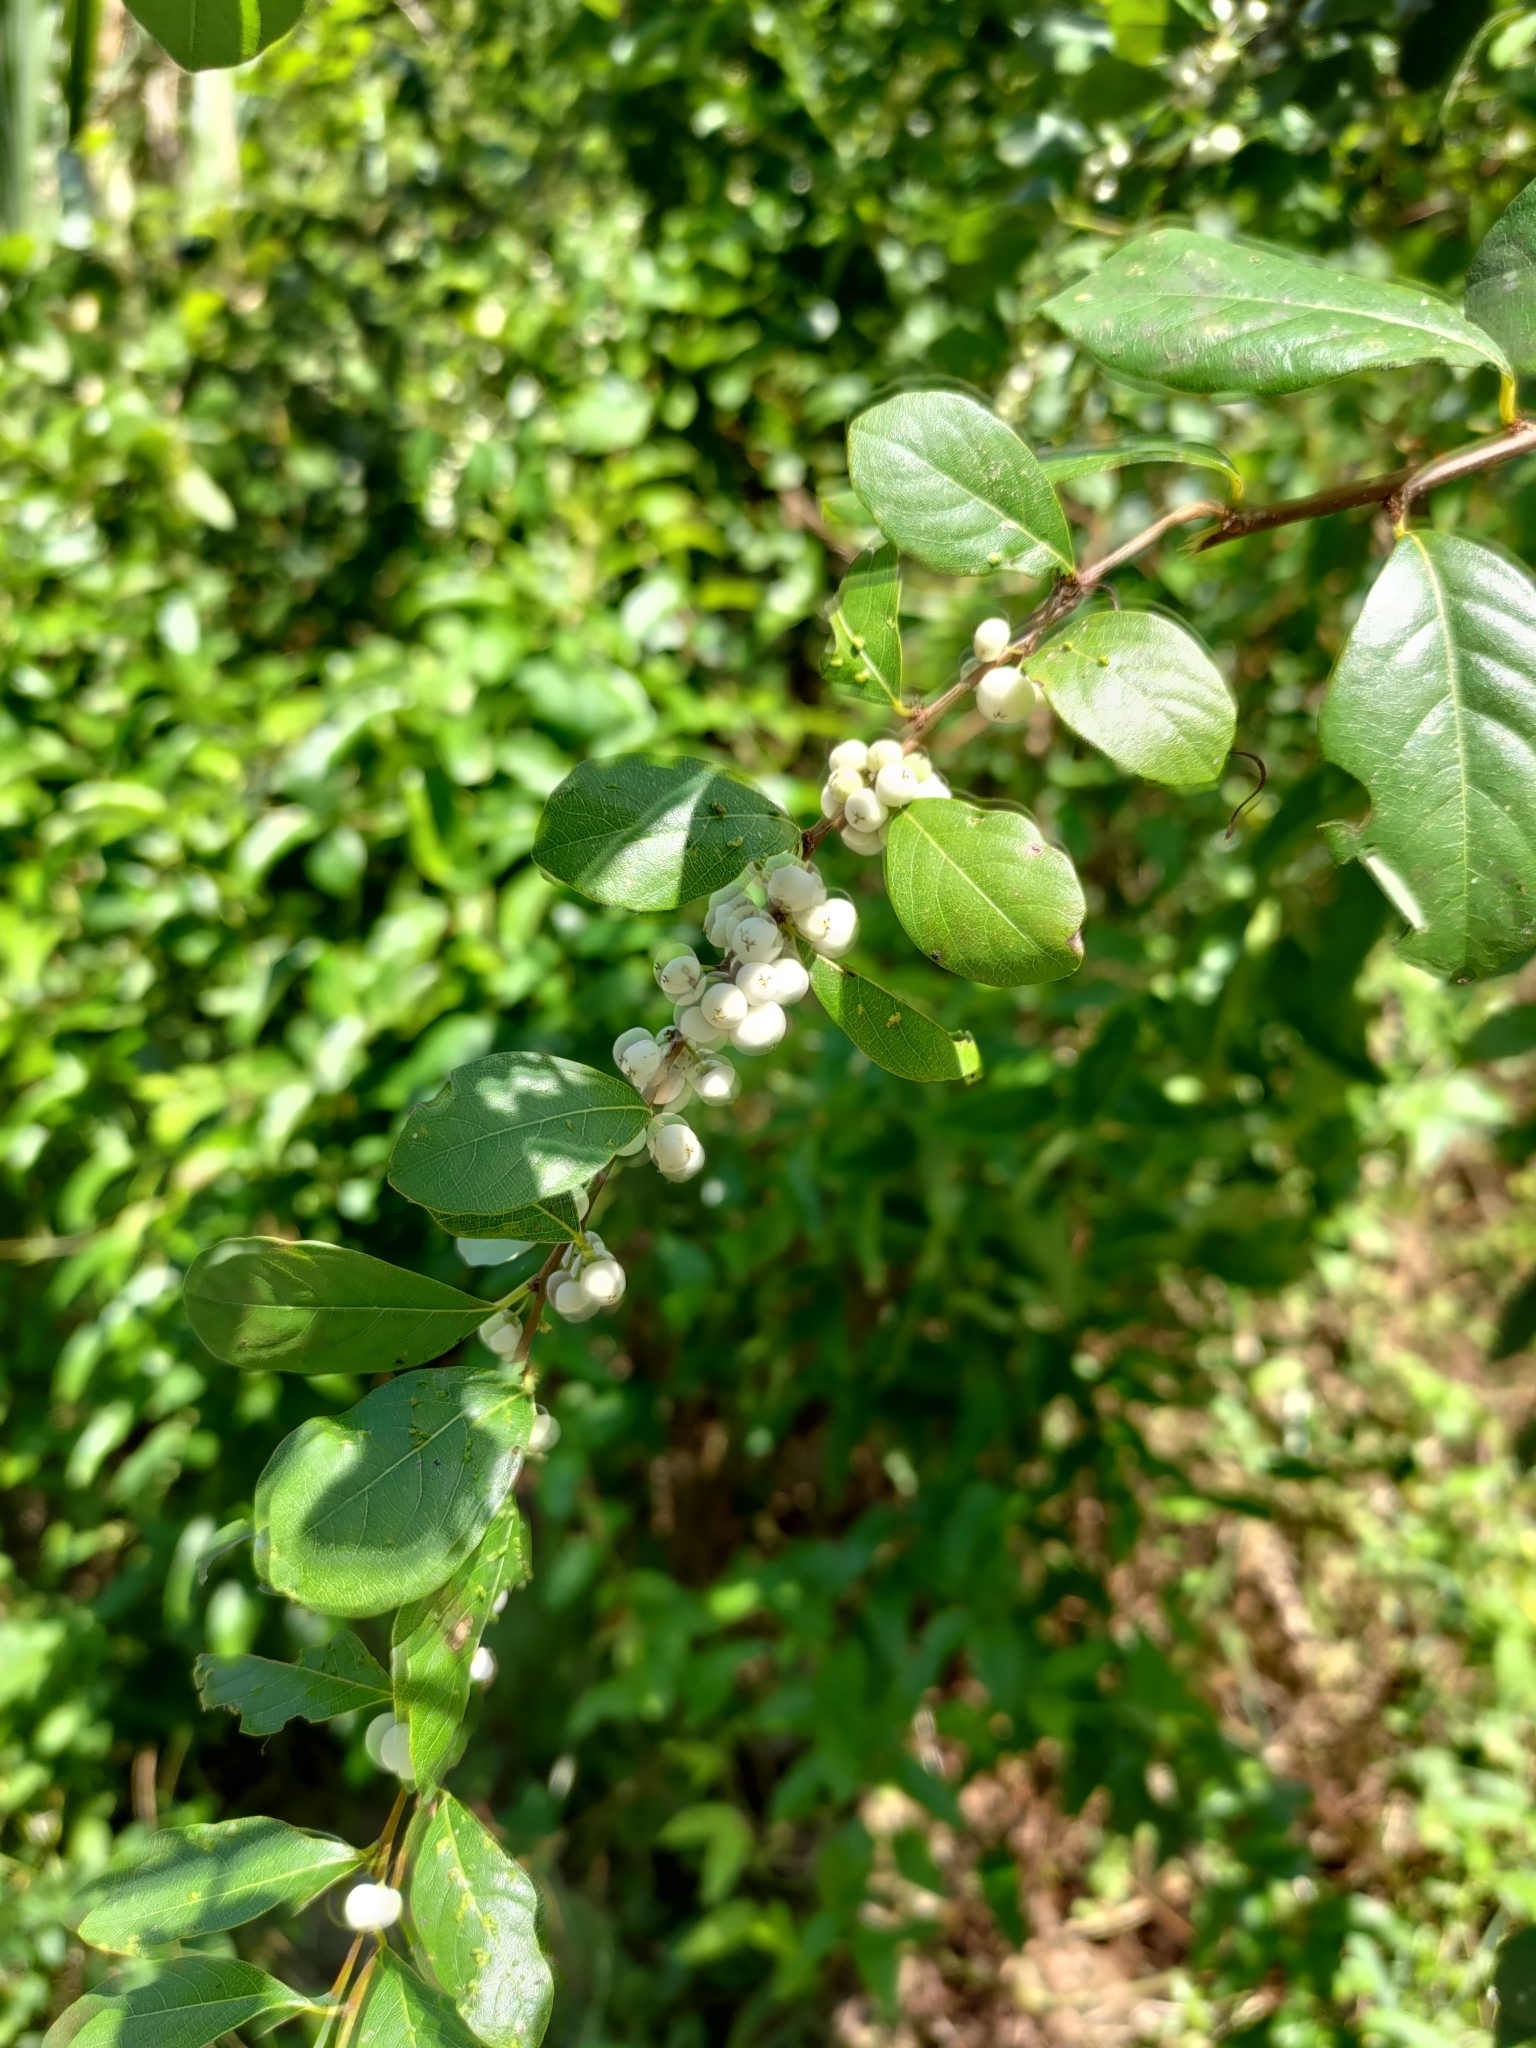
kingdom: Plantae
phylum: Tracheophyta
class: Magnoliopsida
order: Malpighiales
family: Phyllanthaceae
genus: Flueggea
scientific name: Flueggea virosa
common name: Common bushweed
